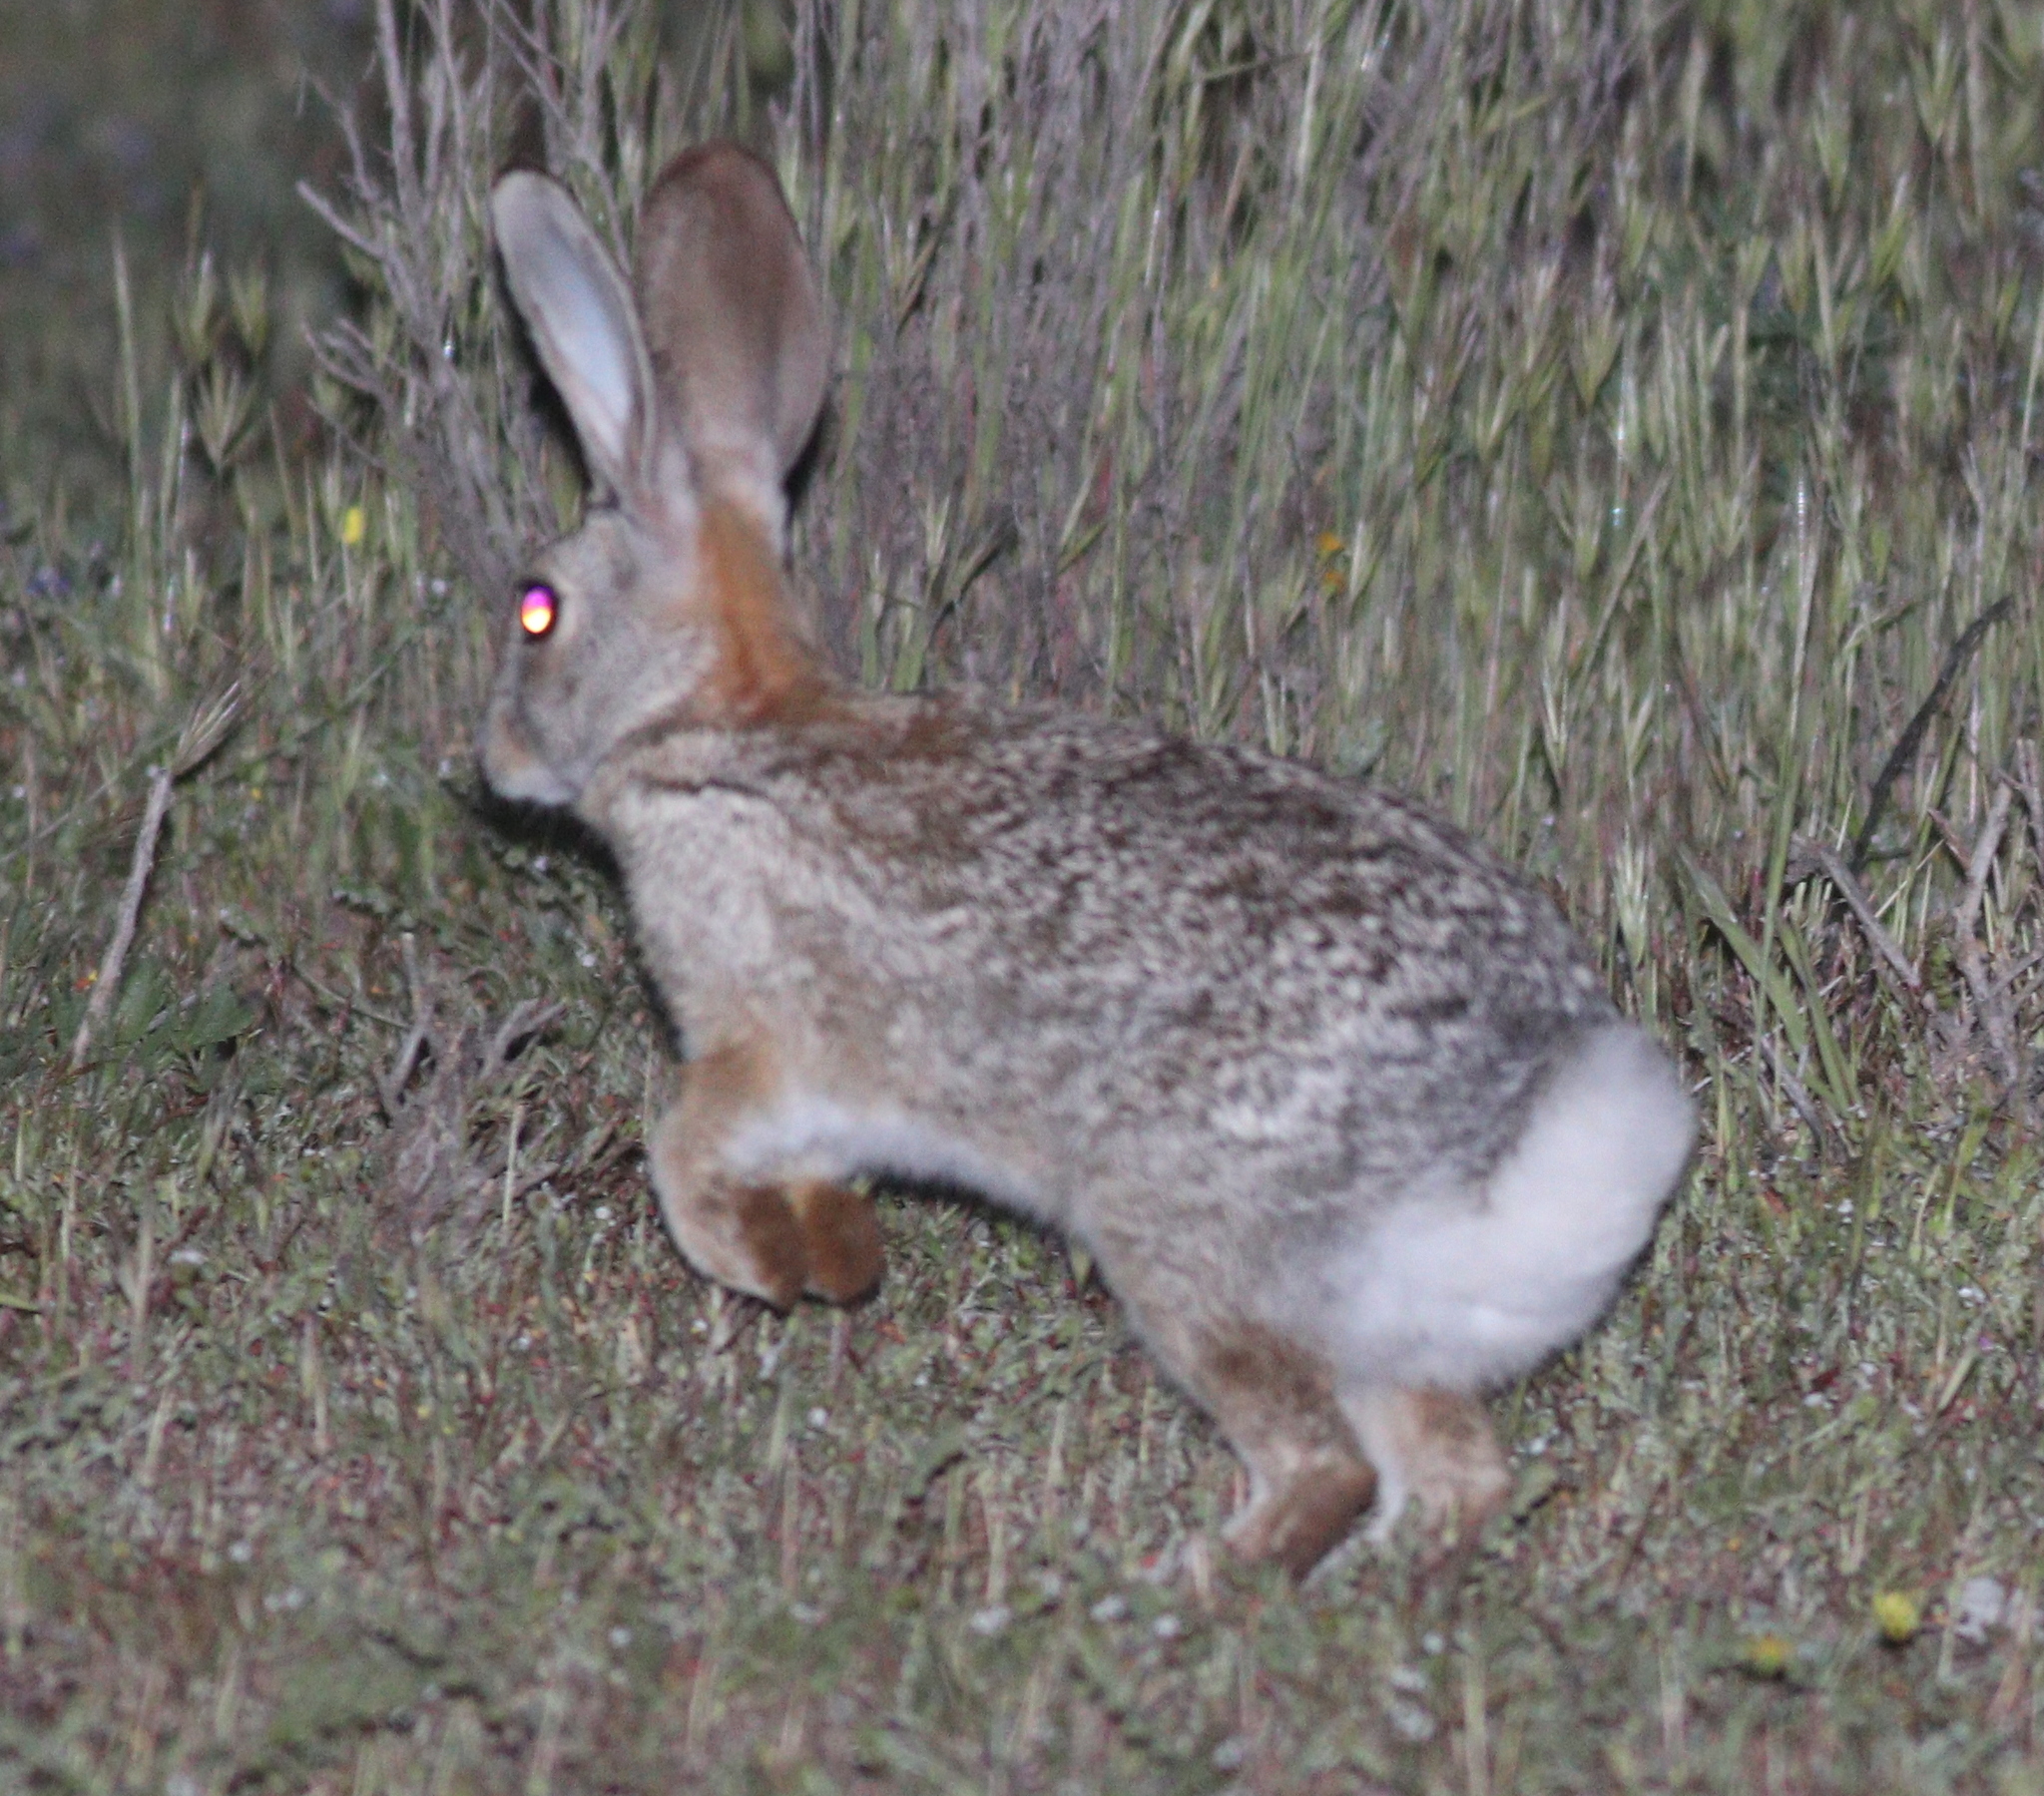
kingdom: Animalia
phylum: Chordata
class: Mammalia
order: Lagomorpha
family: Leporidae
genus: Sylvilagus
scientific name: Sylvilagus audubonii
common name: Desert cottontail
